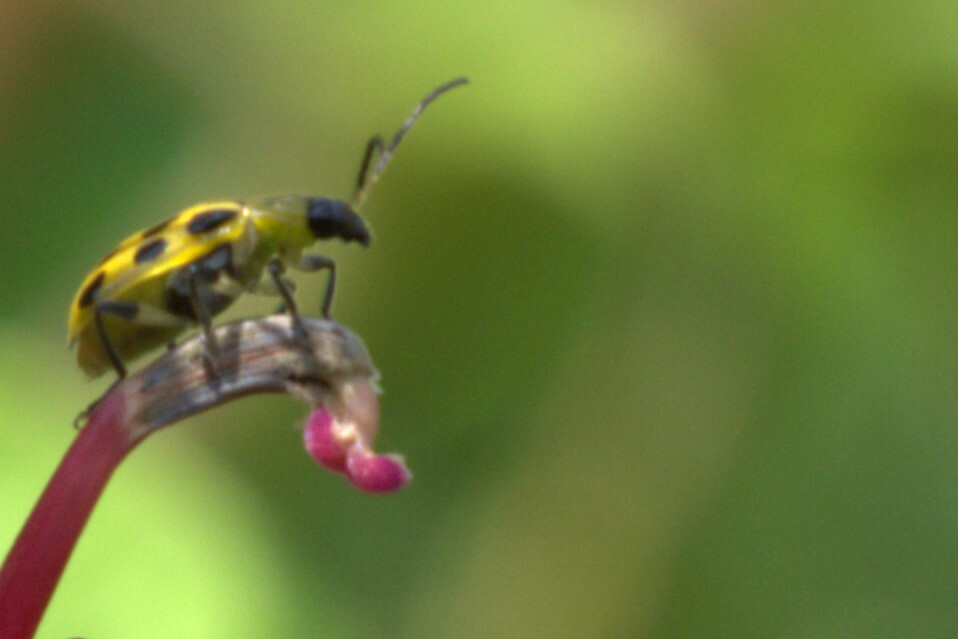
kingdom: Animalia
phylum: Arthropoda
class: Insecta
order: Coleoptera
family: Chrysomelidae
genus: Diabrotica
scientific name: Diabrotica undecimpunctata
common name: Spotted cucumber beetle
